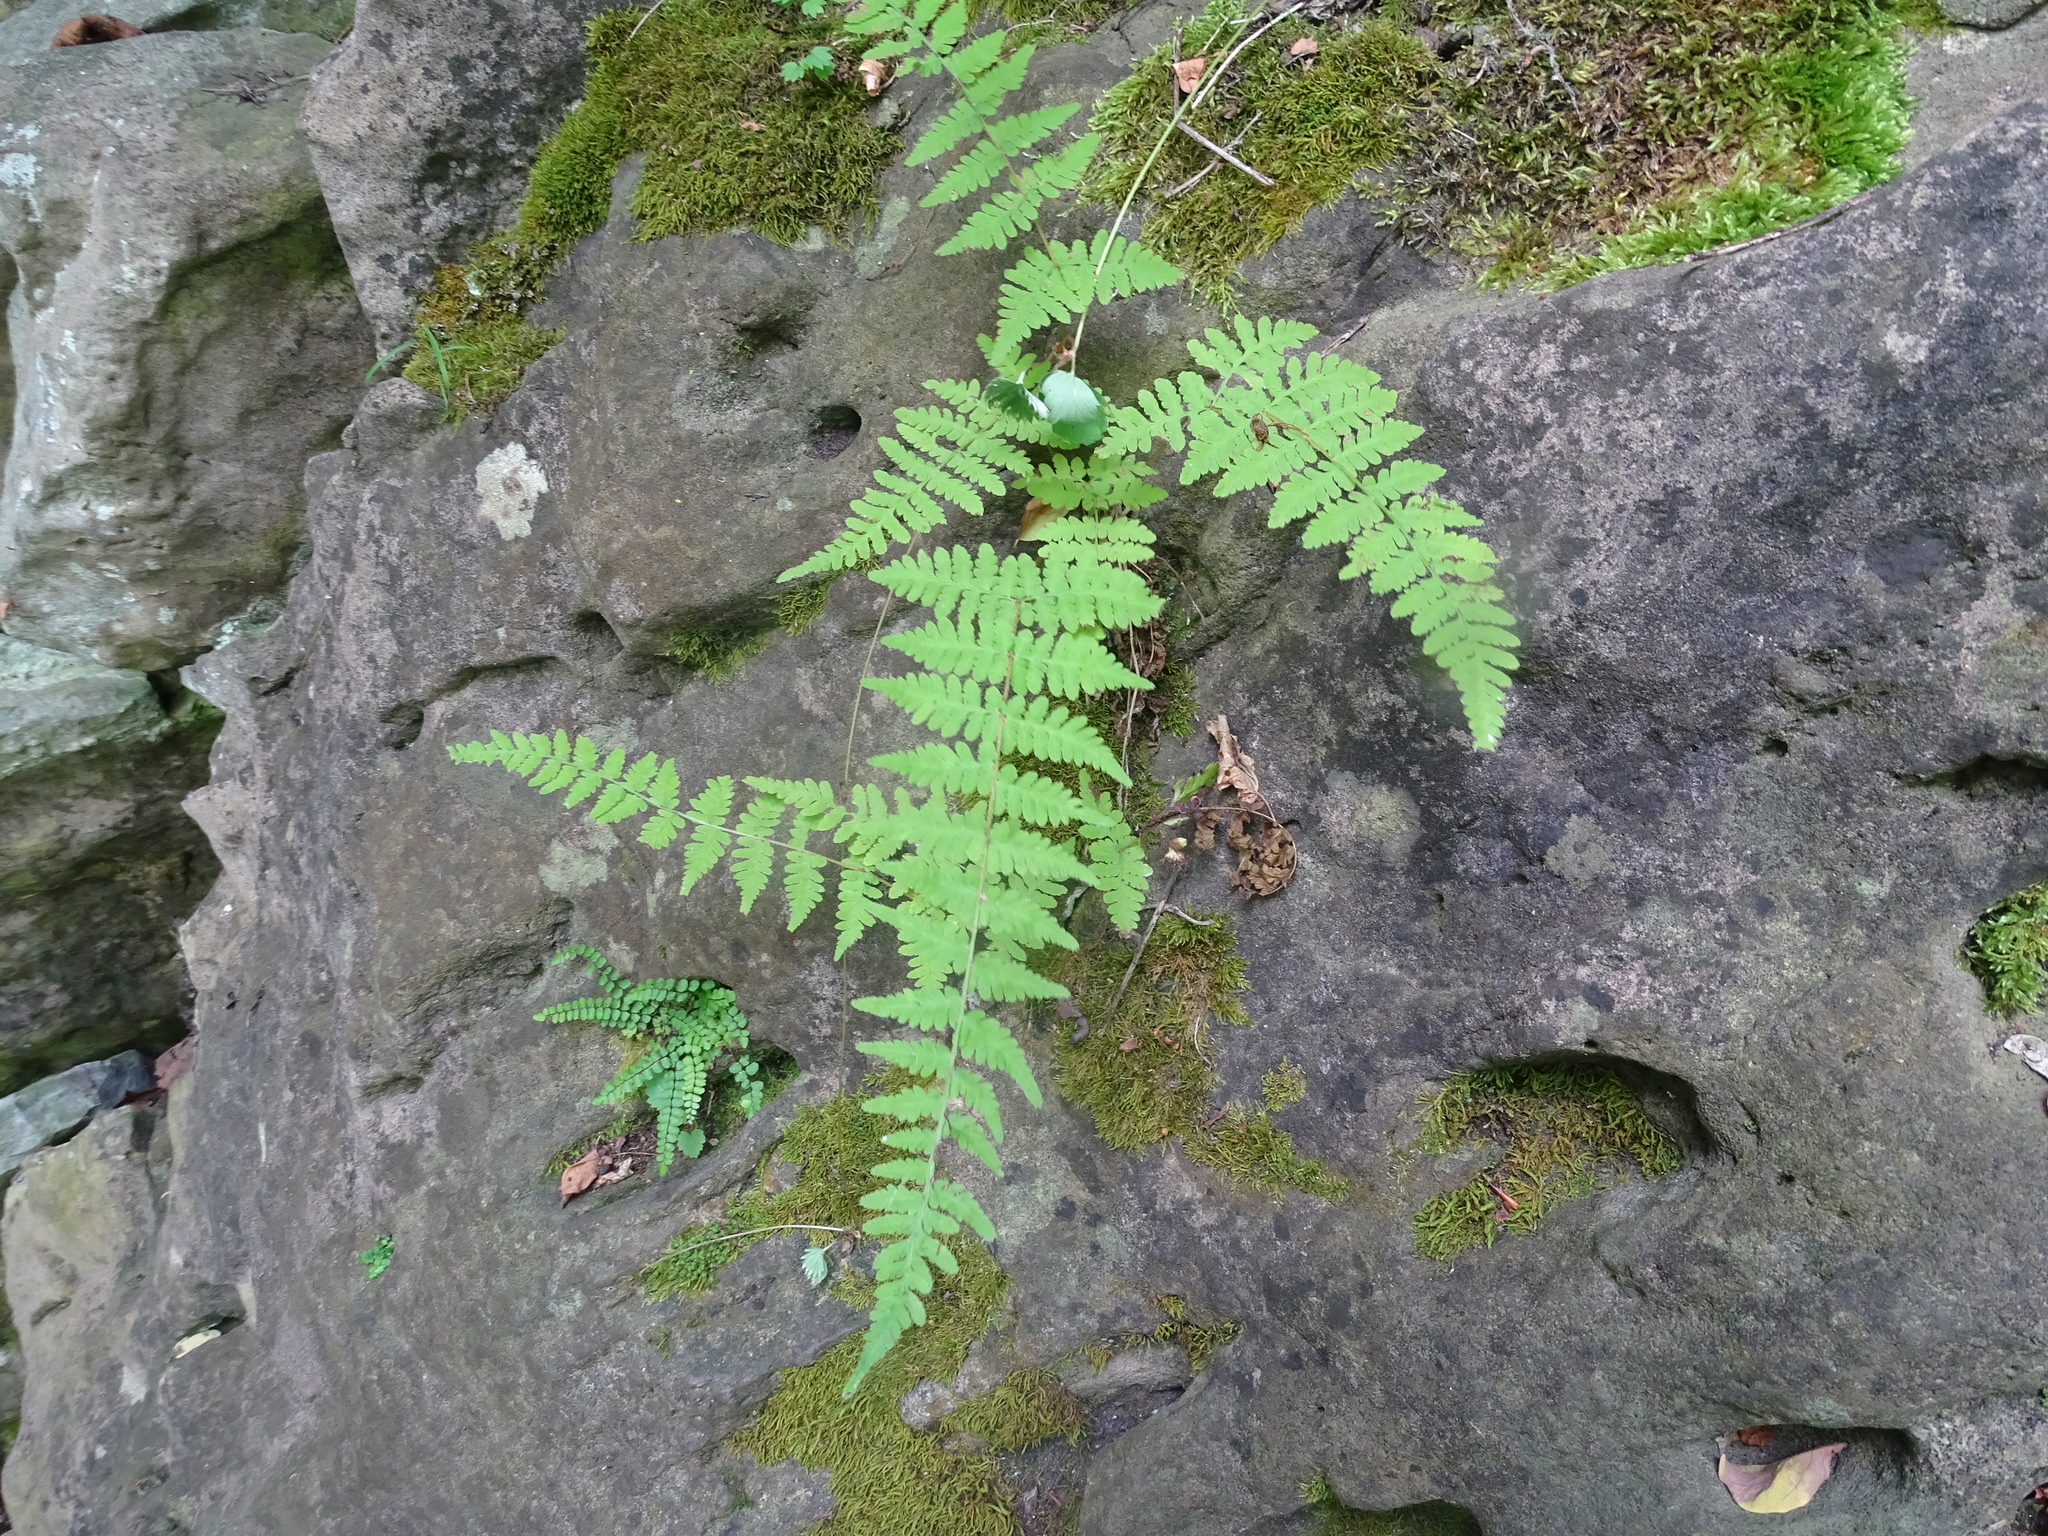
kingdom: Plantae
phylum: Tracheophyta
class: Polypodiopsida
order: Polypodiales
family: Cystopteridaceae
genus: Cystopteris
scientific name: Cystopteris bulbifera
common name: Bulblet bladder fern
